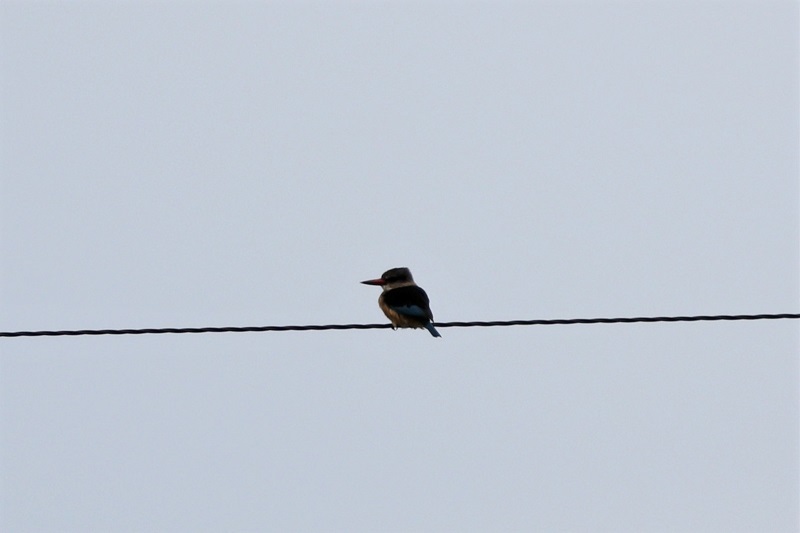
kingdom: Animalia
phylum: Chordata
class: Aves
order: Coraciiformes
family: Alcedinidae
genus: Halcyon
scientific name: Halcyon albiventris
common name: Brown-hooded kingfisher
